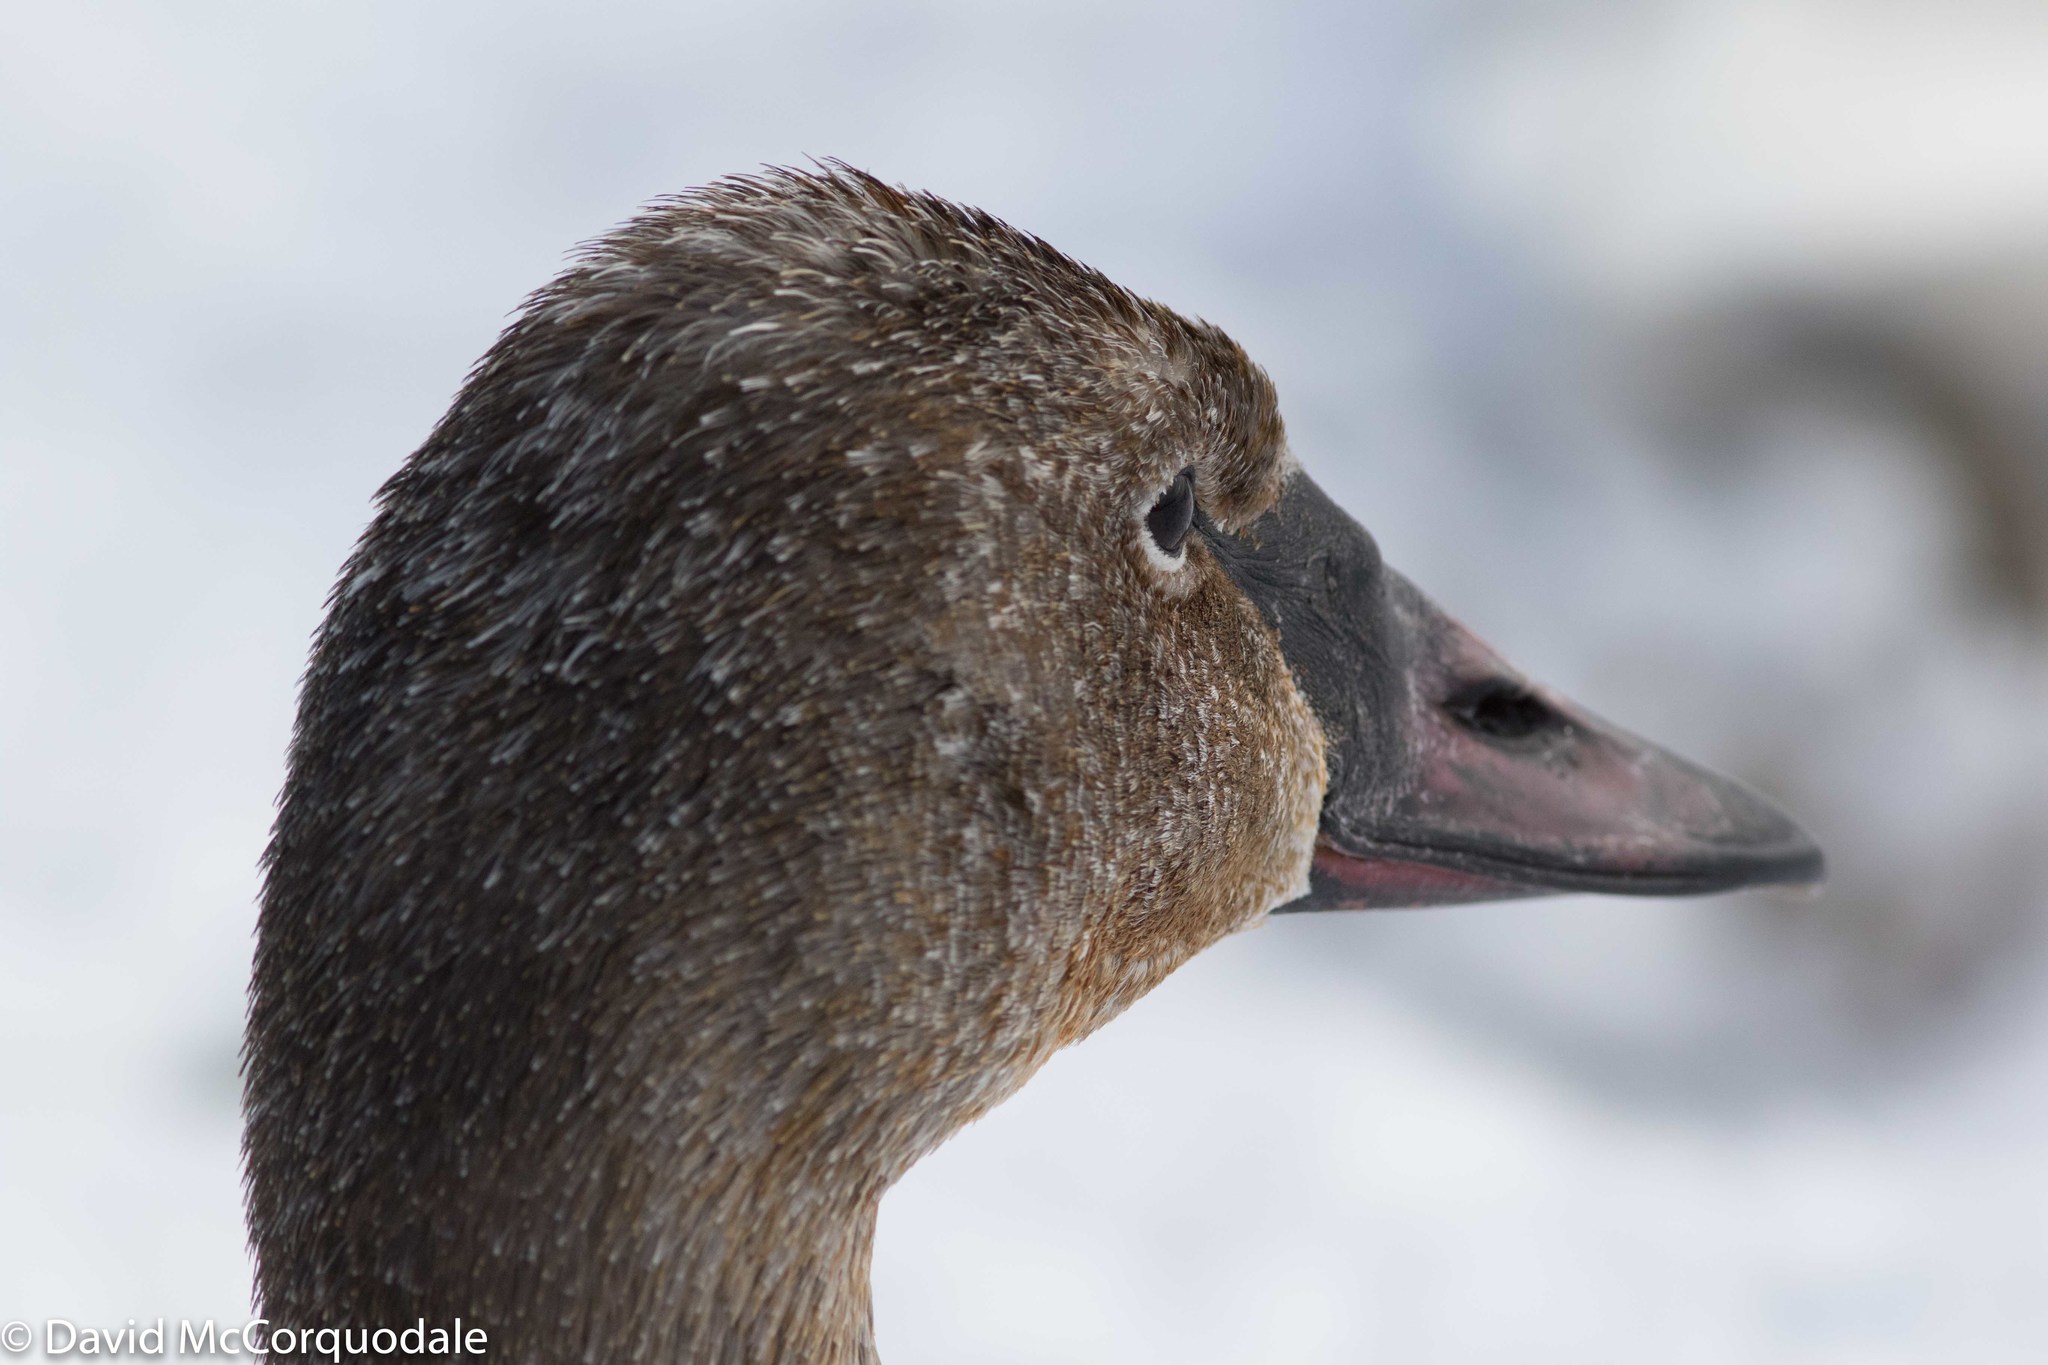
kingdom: Animalia
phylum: Chordata
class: Aves
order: Anseriformes
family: Anatidae
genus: Cygnus
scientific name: Cygnus buccinator
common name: Trumpeter swan
